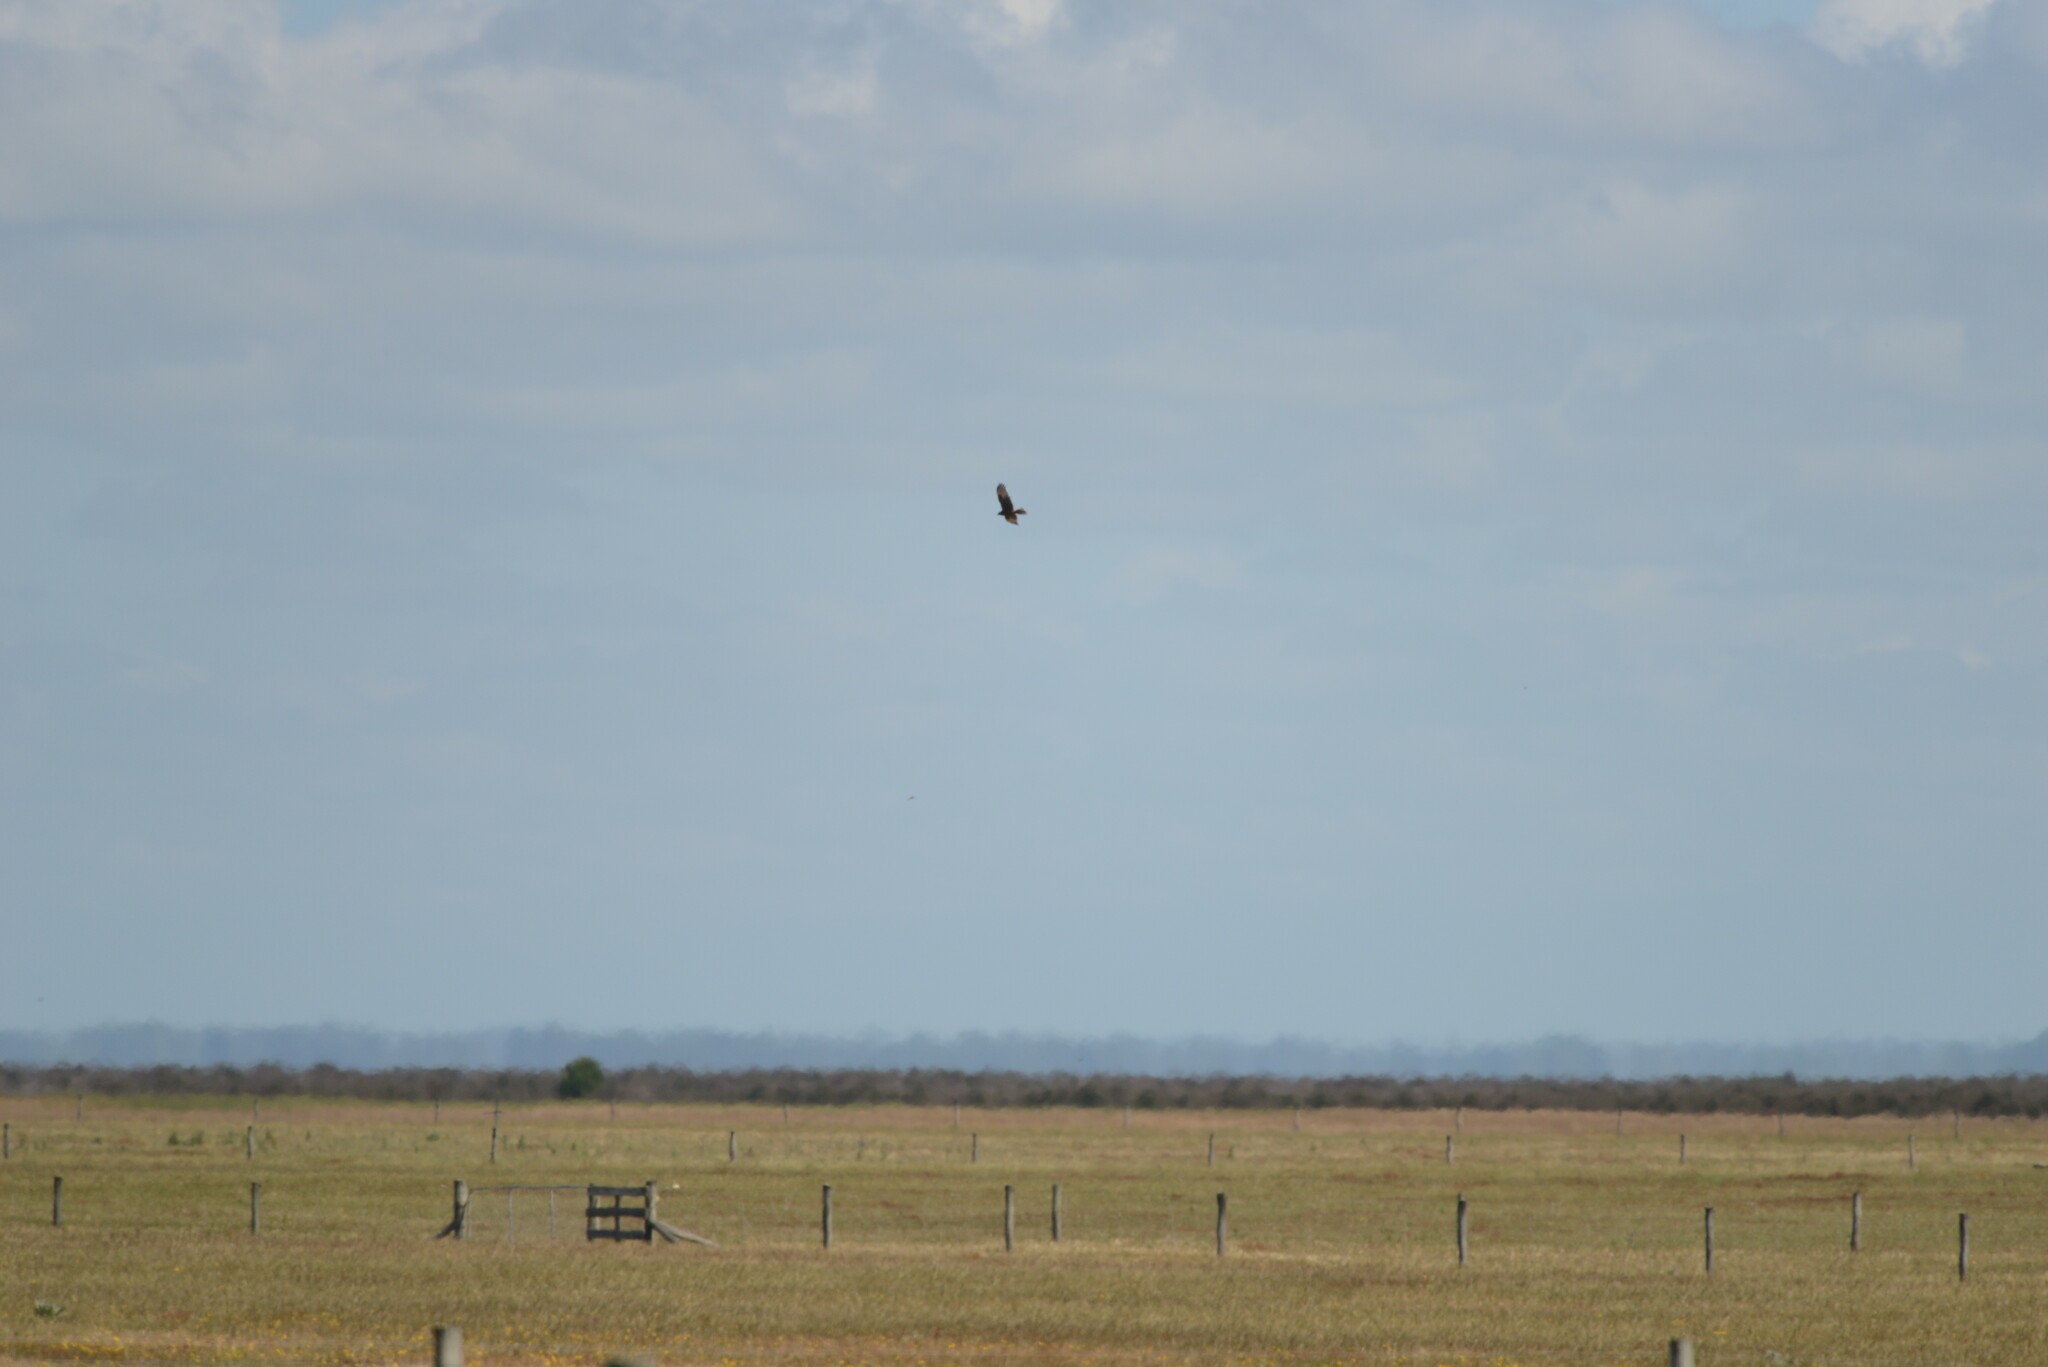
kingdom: Animalia
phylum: Chordata
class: Aves
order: Accipitriformes
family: Accipitridae
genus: Circus
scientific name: Circus approximans
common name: Swamp harrier
